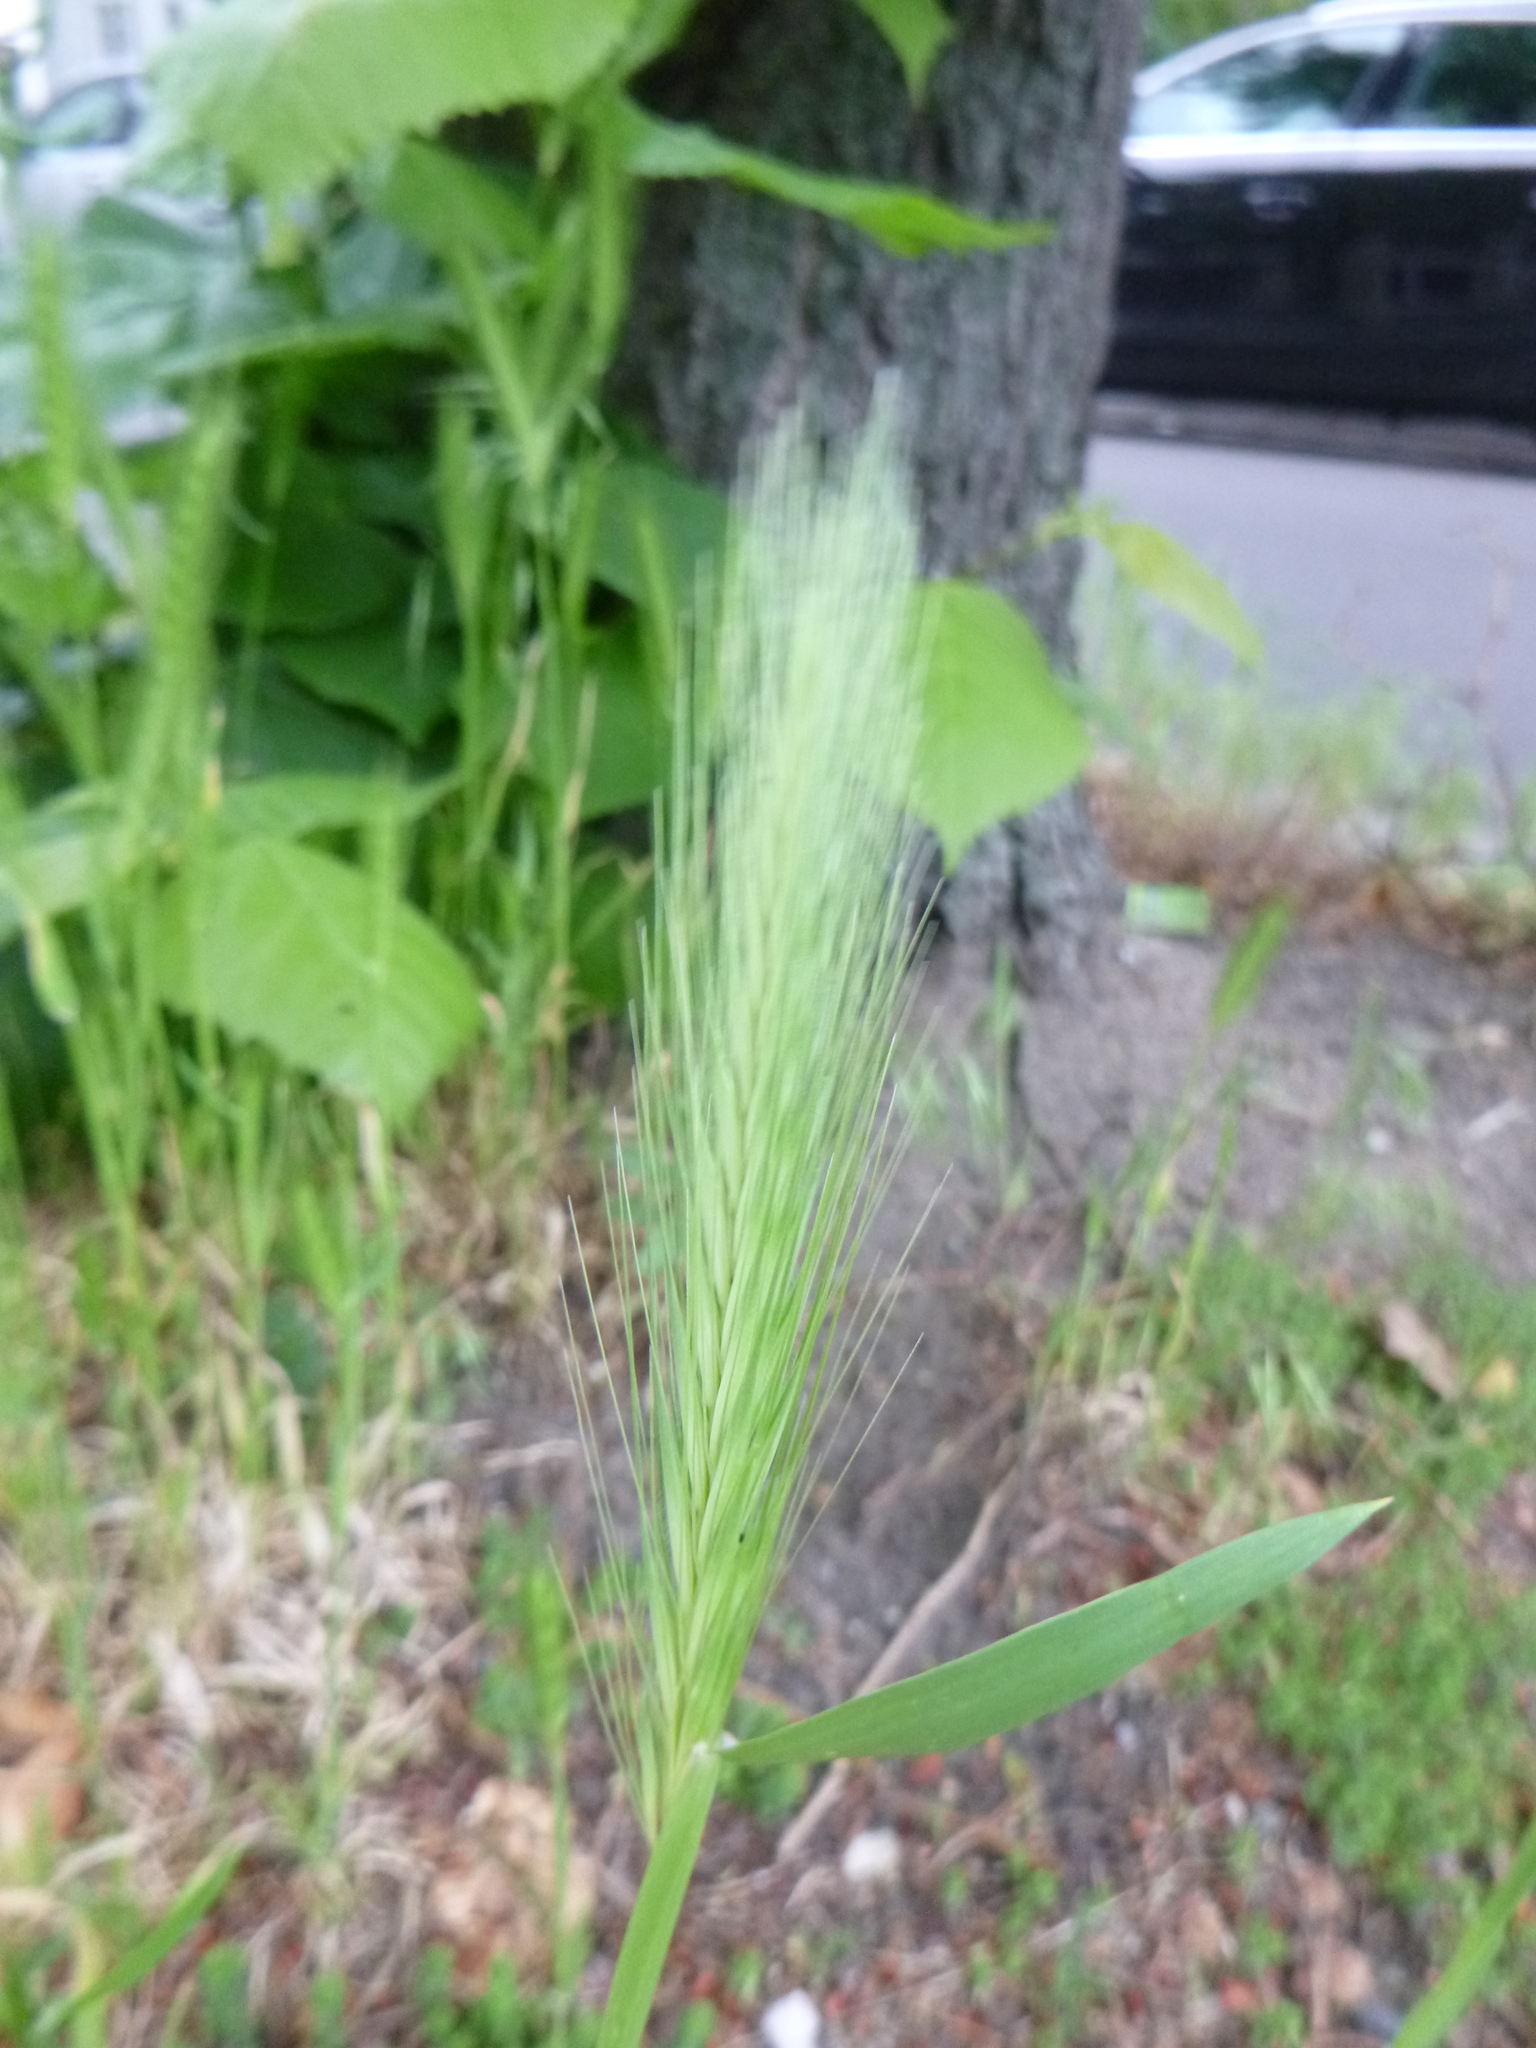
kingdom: Plantae
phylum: Tracheophyta
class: Liliopsida
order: Poales
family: Poaceae
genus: Hordeum
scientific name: Hordeum murinum
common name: Wall barley
